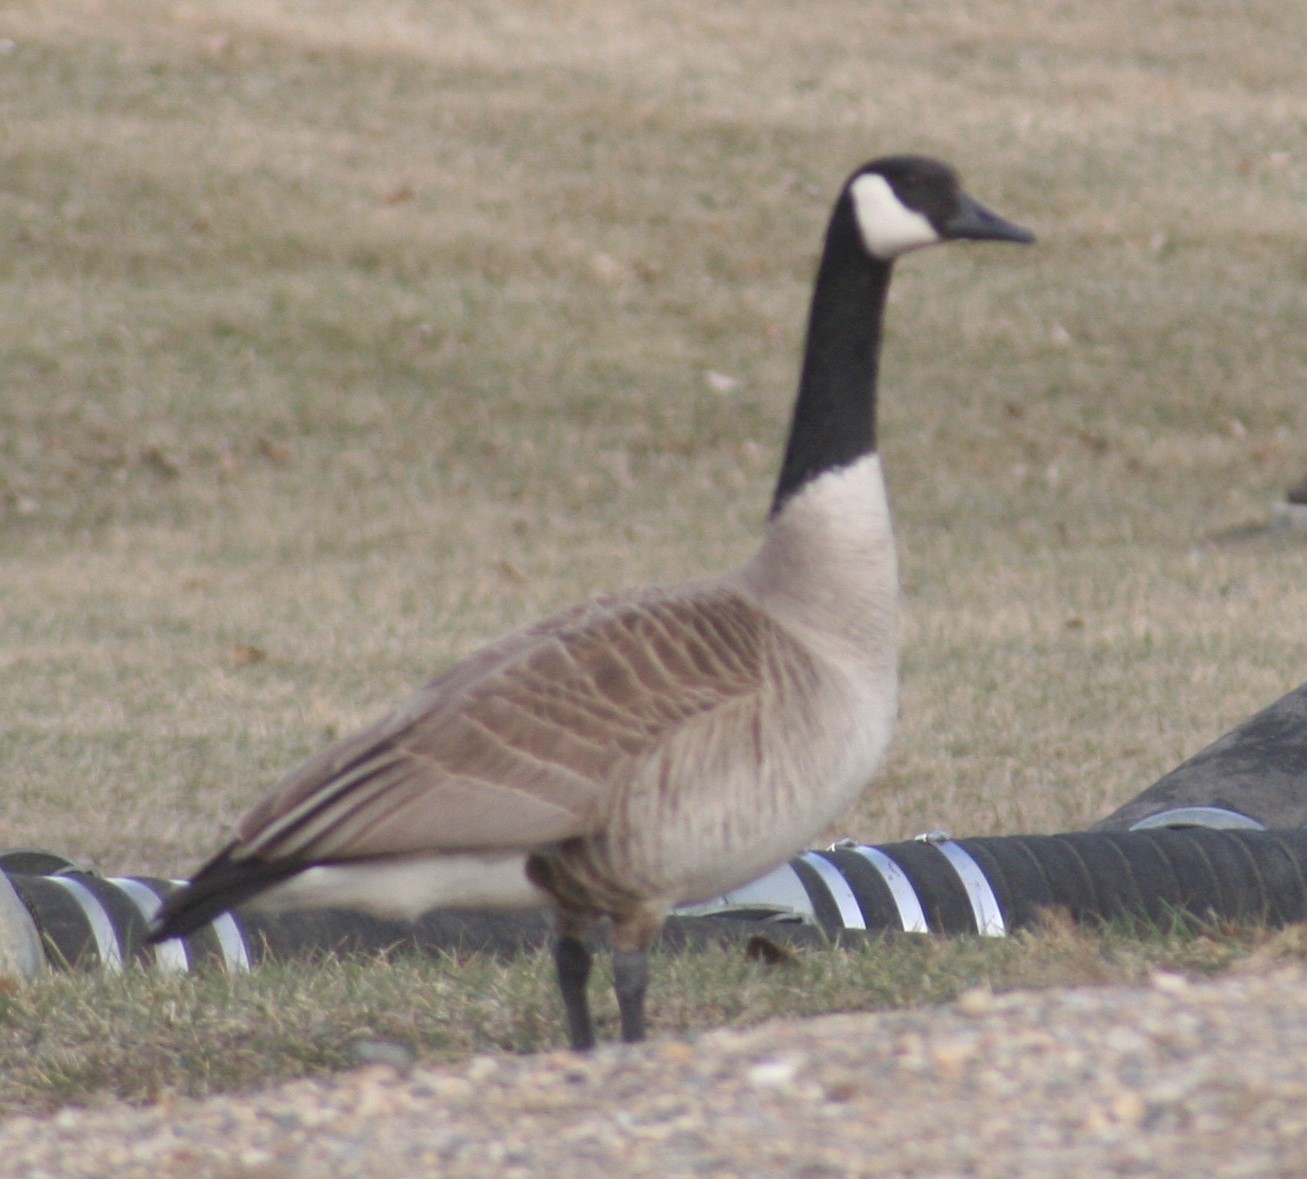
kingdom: Animalia
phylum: Chordata
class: Aves
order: Anseriformes
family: Anatidae
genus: Branta
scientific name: Branta canadensis
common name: Canada goose
